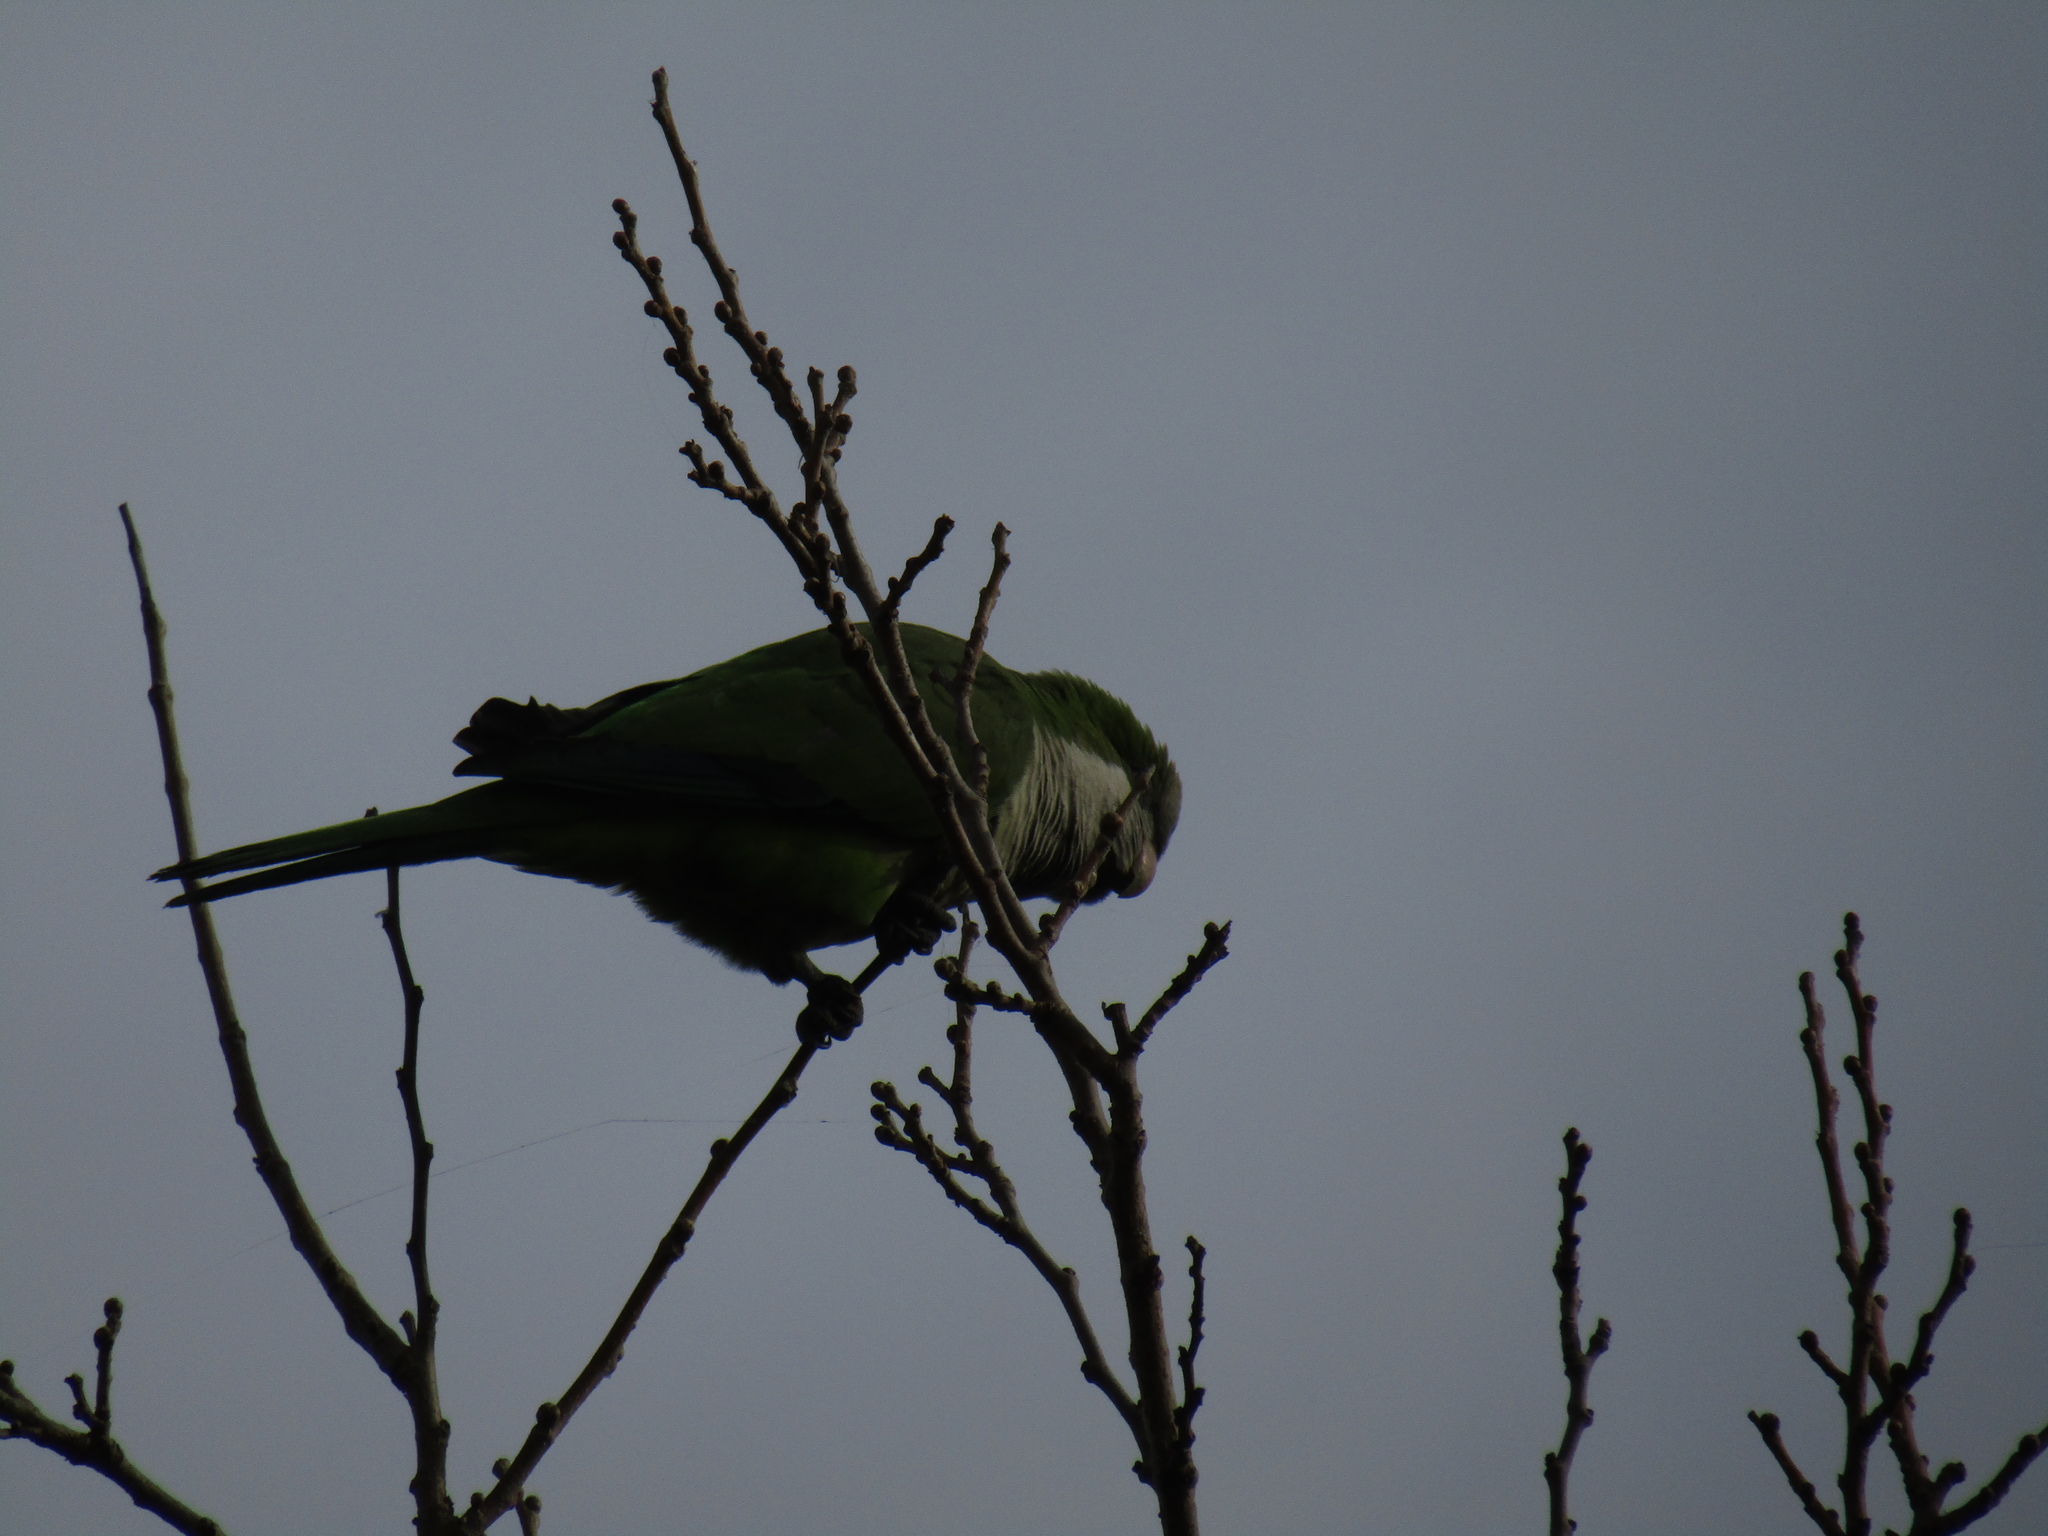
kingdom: Animalia
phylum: Chordata
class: Aves
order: Psittaciformes
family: Psittacidae
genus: Myiopsitta
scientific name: Myiopsitta monachus
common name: Monk parakeet
